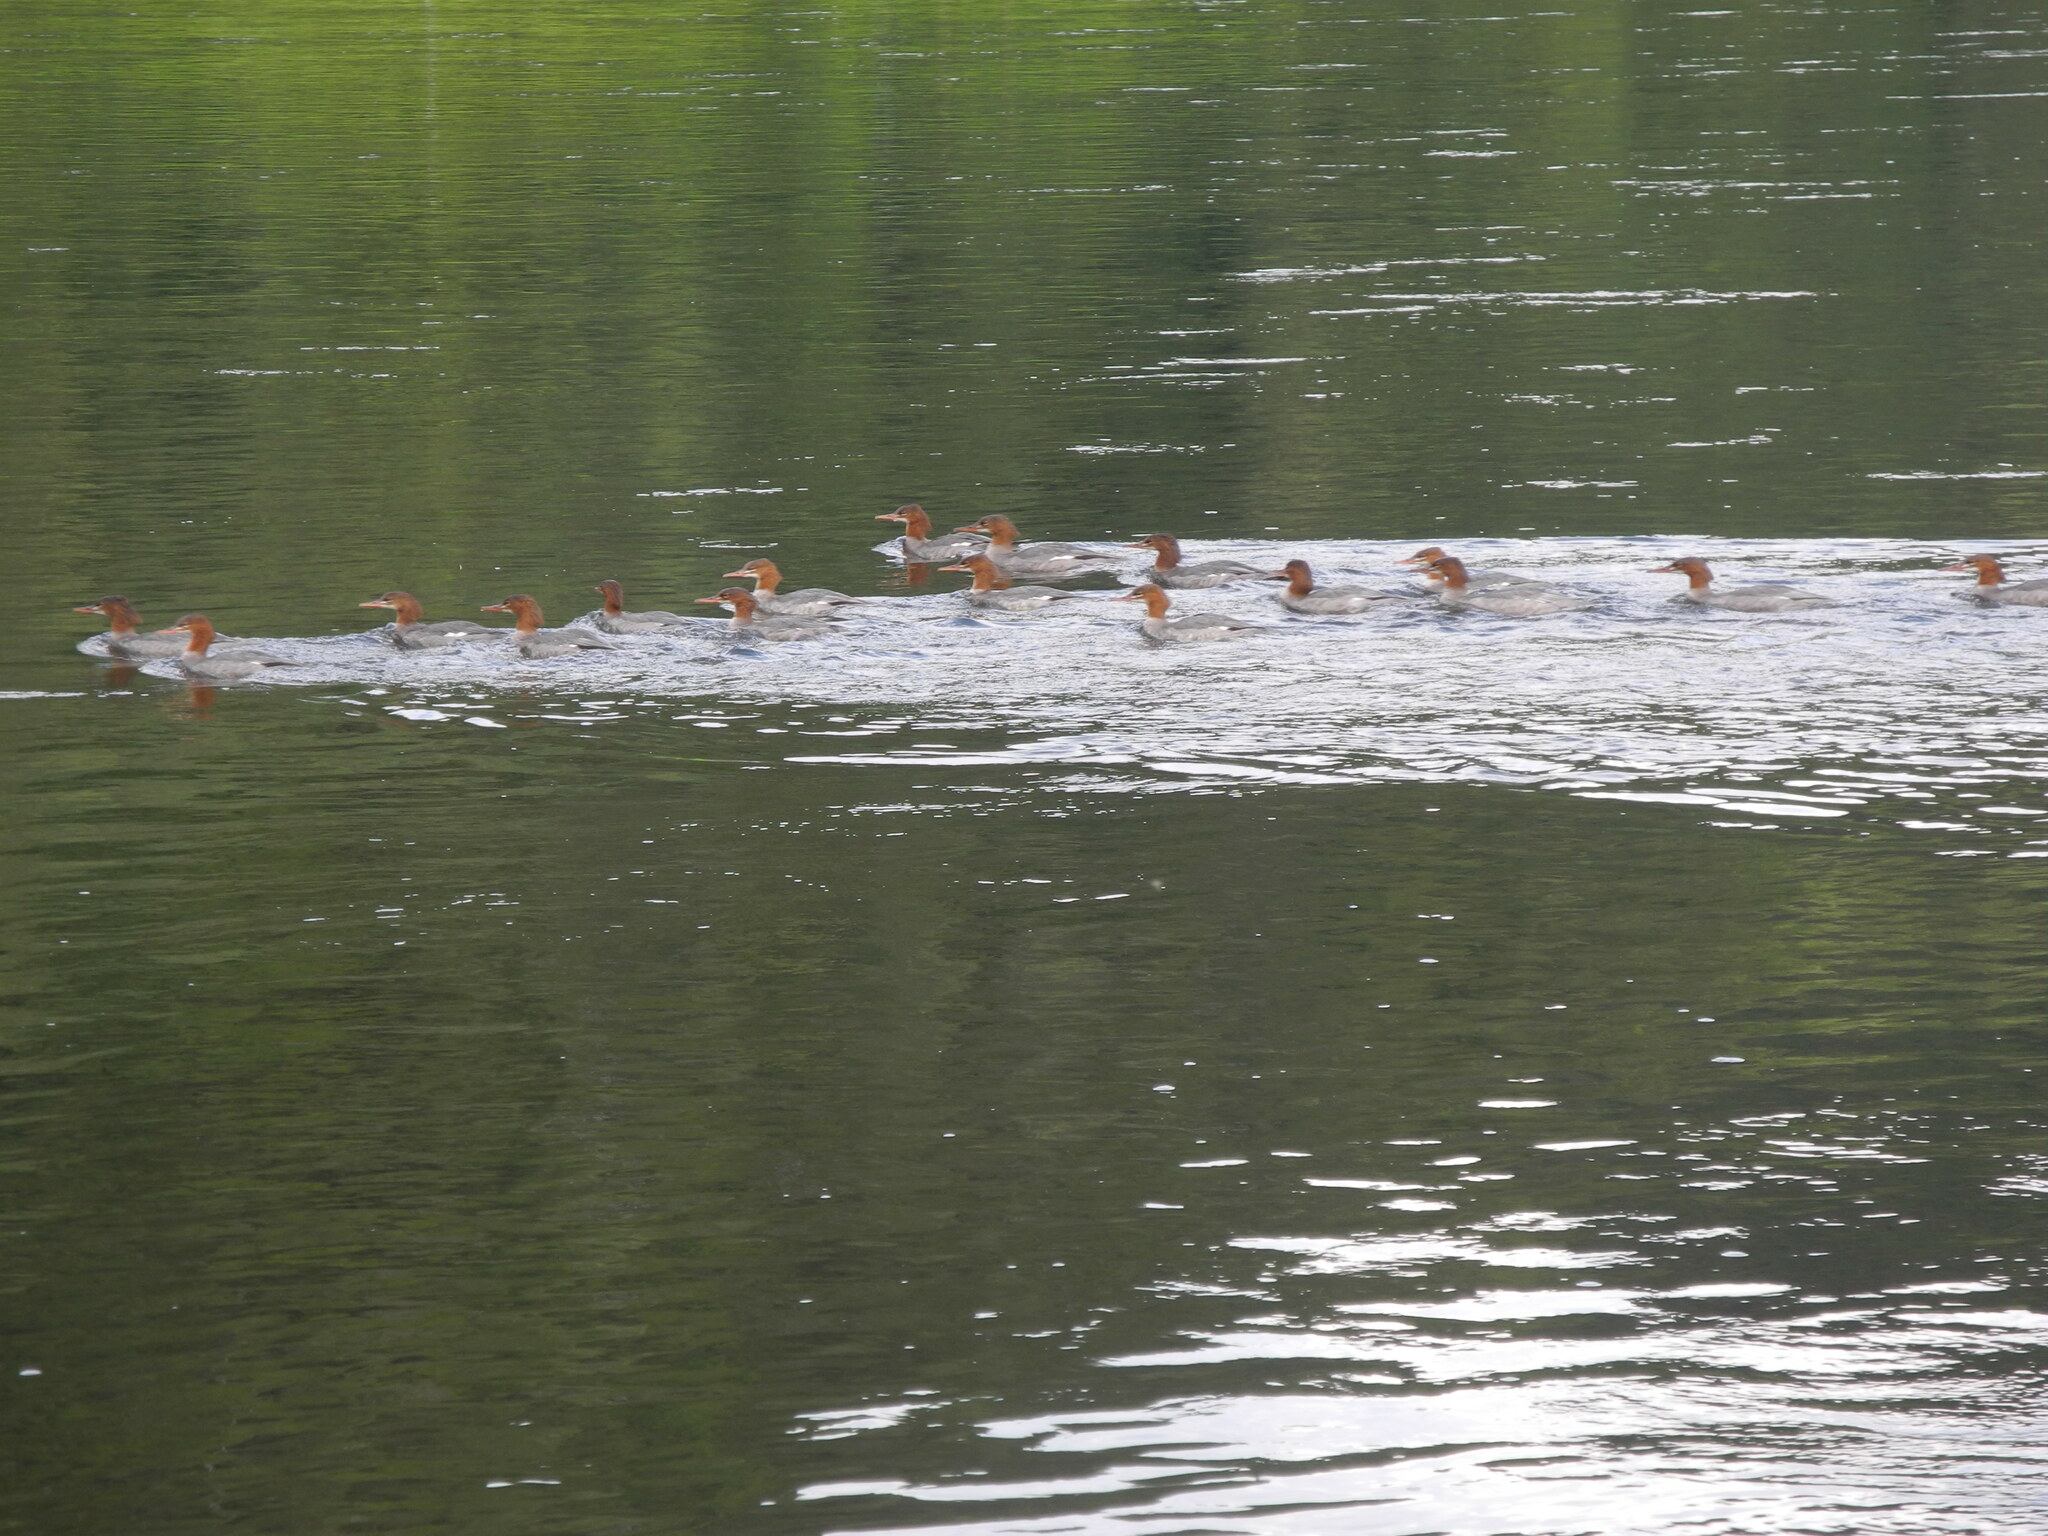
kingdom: Animalia
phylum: Chordata
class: Aves
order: Anseriformes
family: Anatidae
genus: Mergus
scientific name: Mergus merganser
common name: Common merganser
